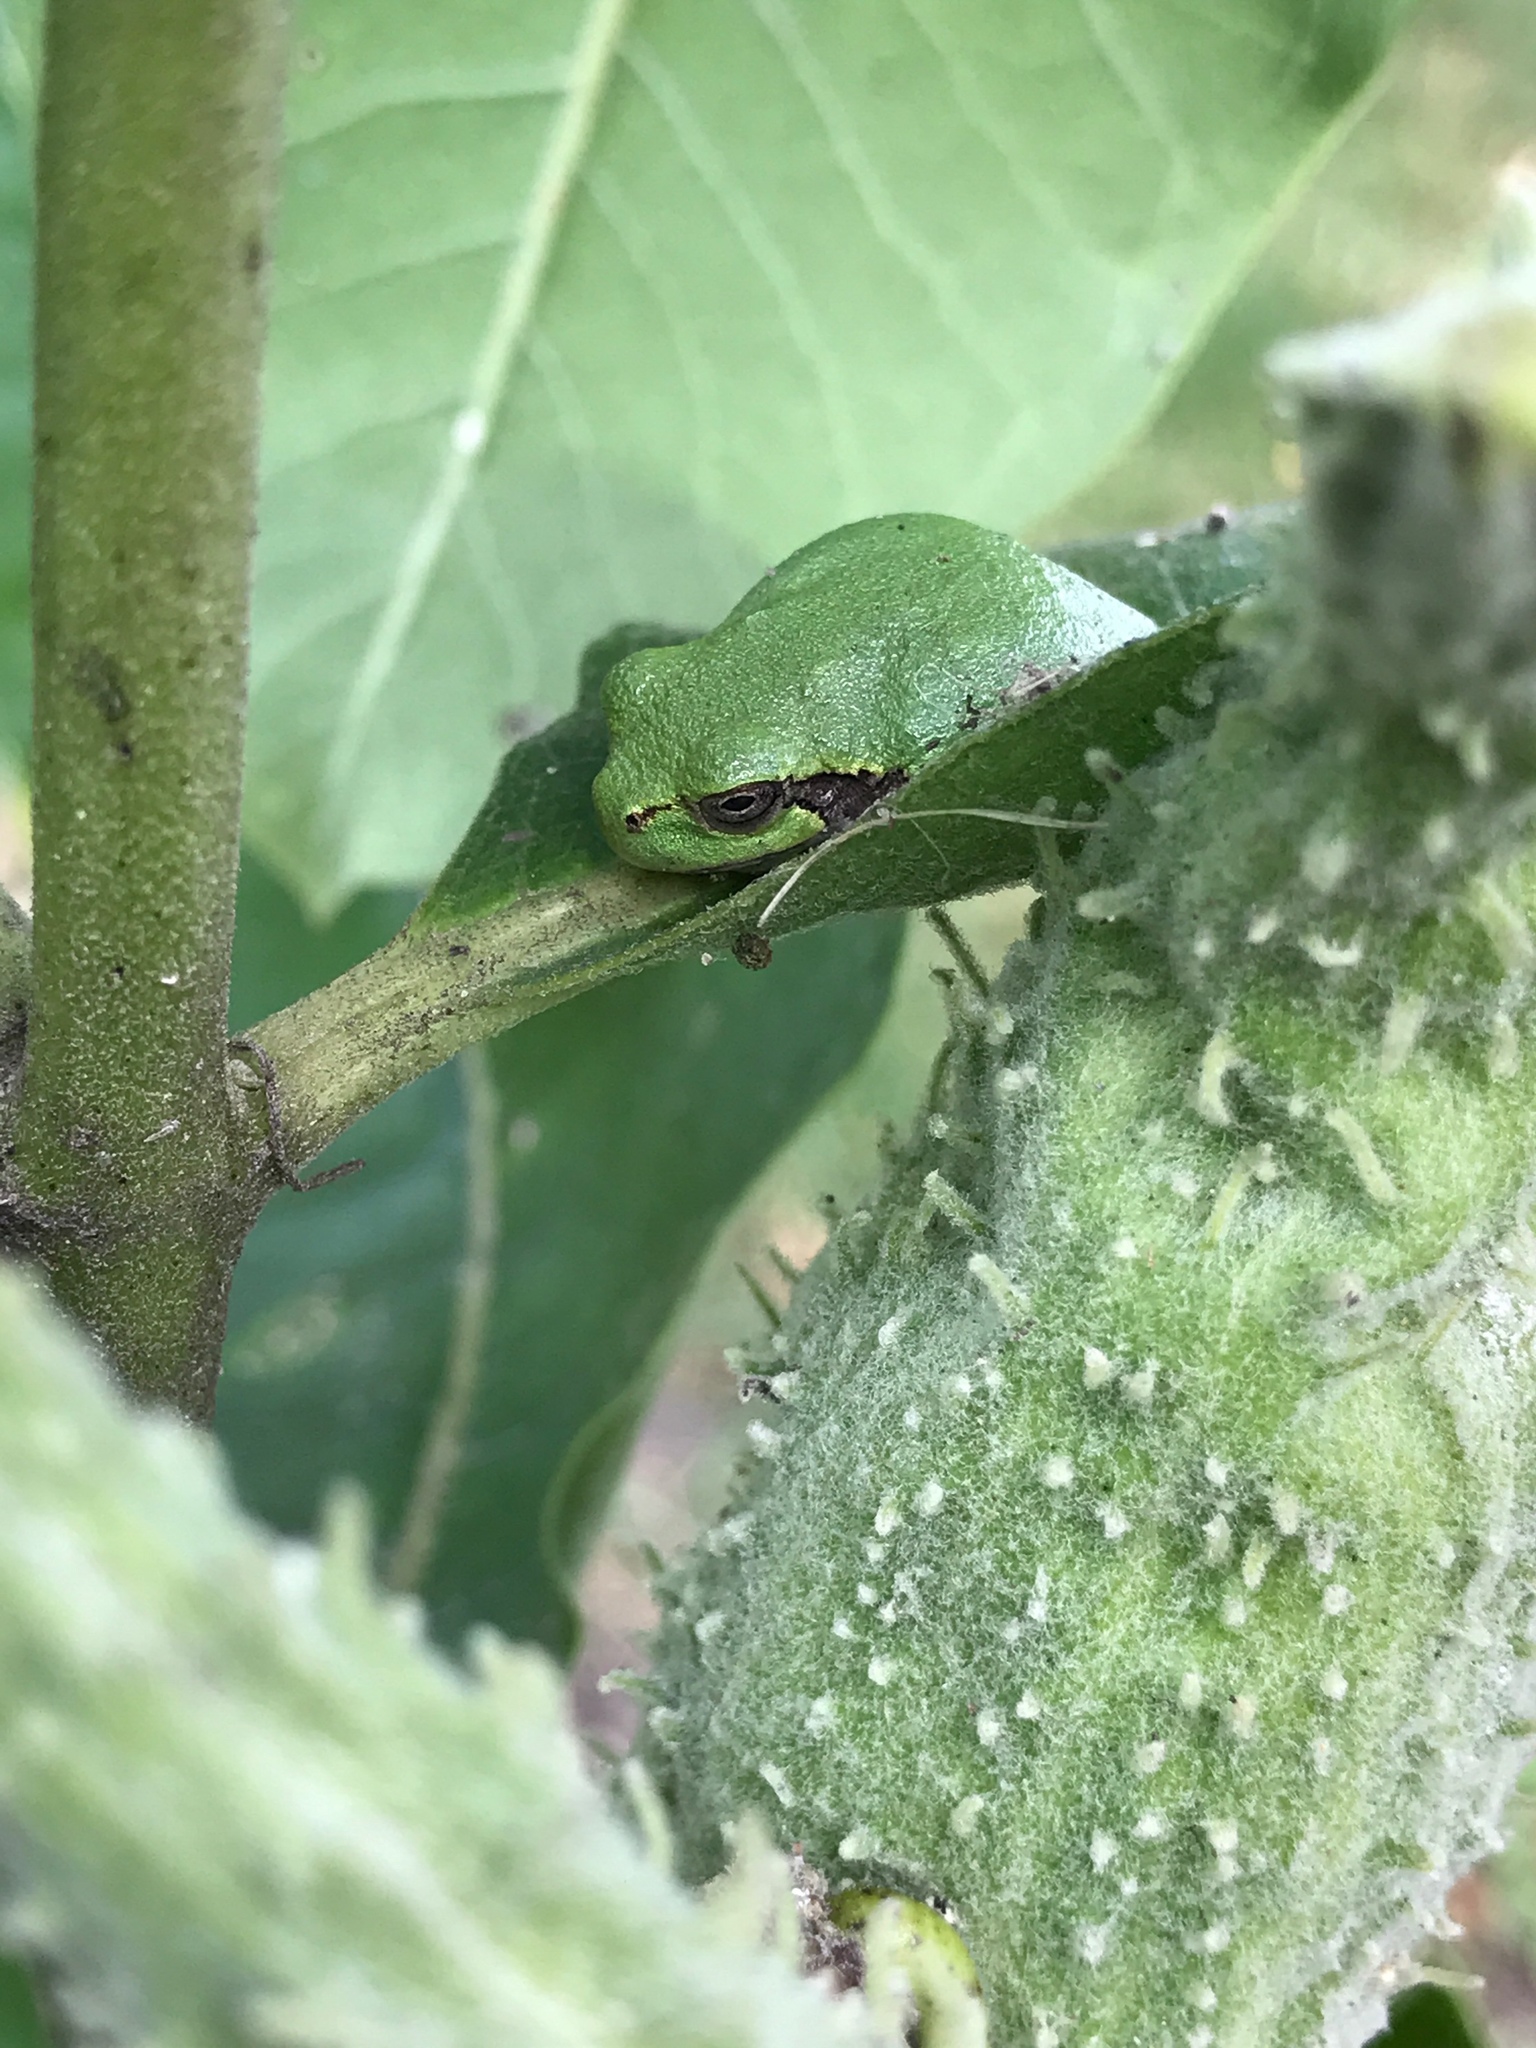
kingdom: Animalia
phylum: Chordata
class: Amphibia
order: Anura
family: Hylidae
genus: Hyla
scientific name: Hyla
